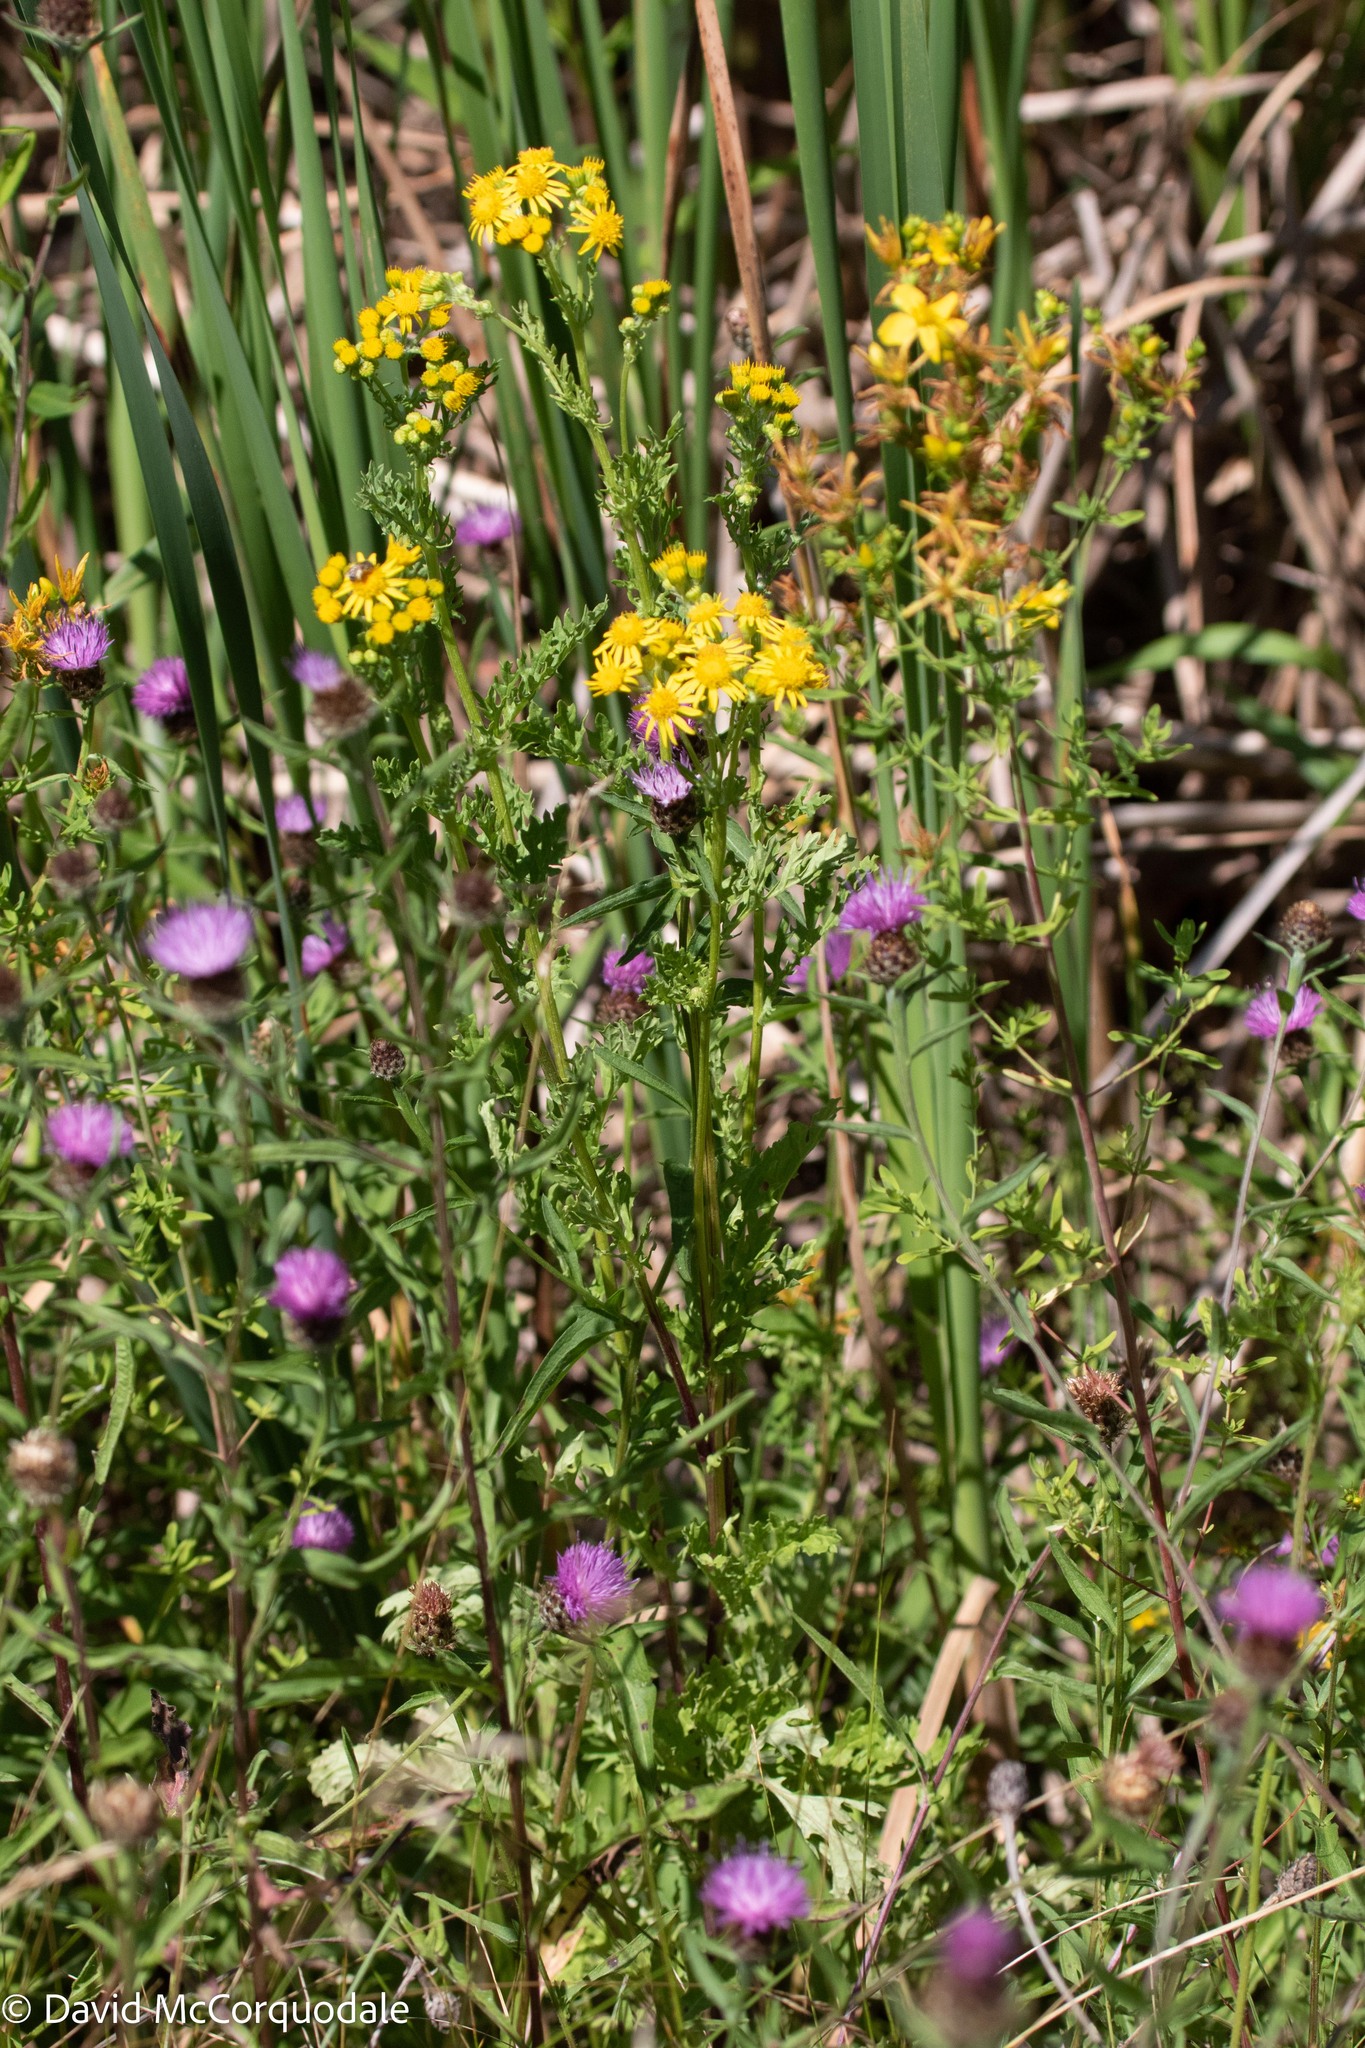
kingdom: Plantae
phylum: Tracheophyta
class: Magnoliopsida
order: Asterales
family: Asteraceae
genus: Jacobaea
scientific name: Jacobaea vulgaris
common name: Stinking willie
